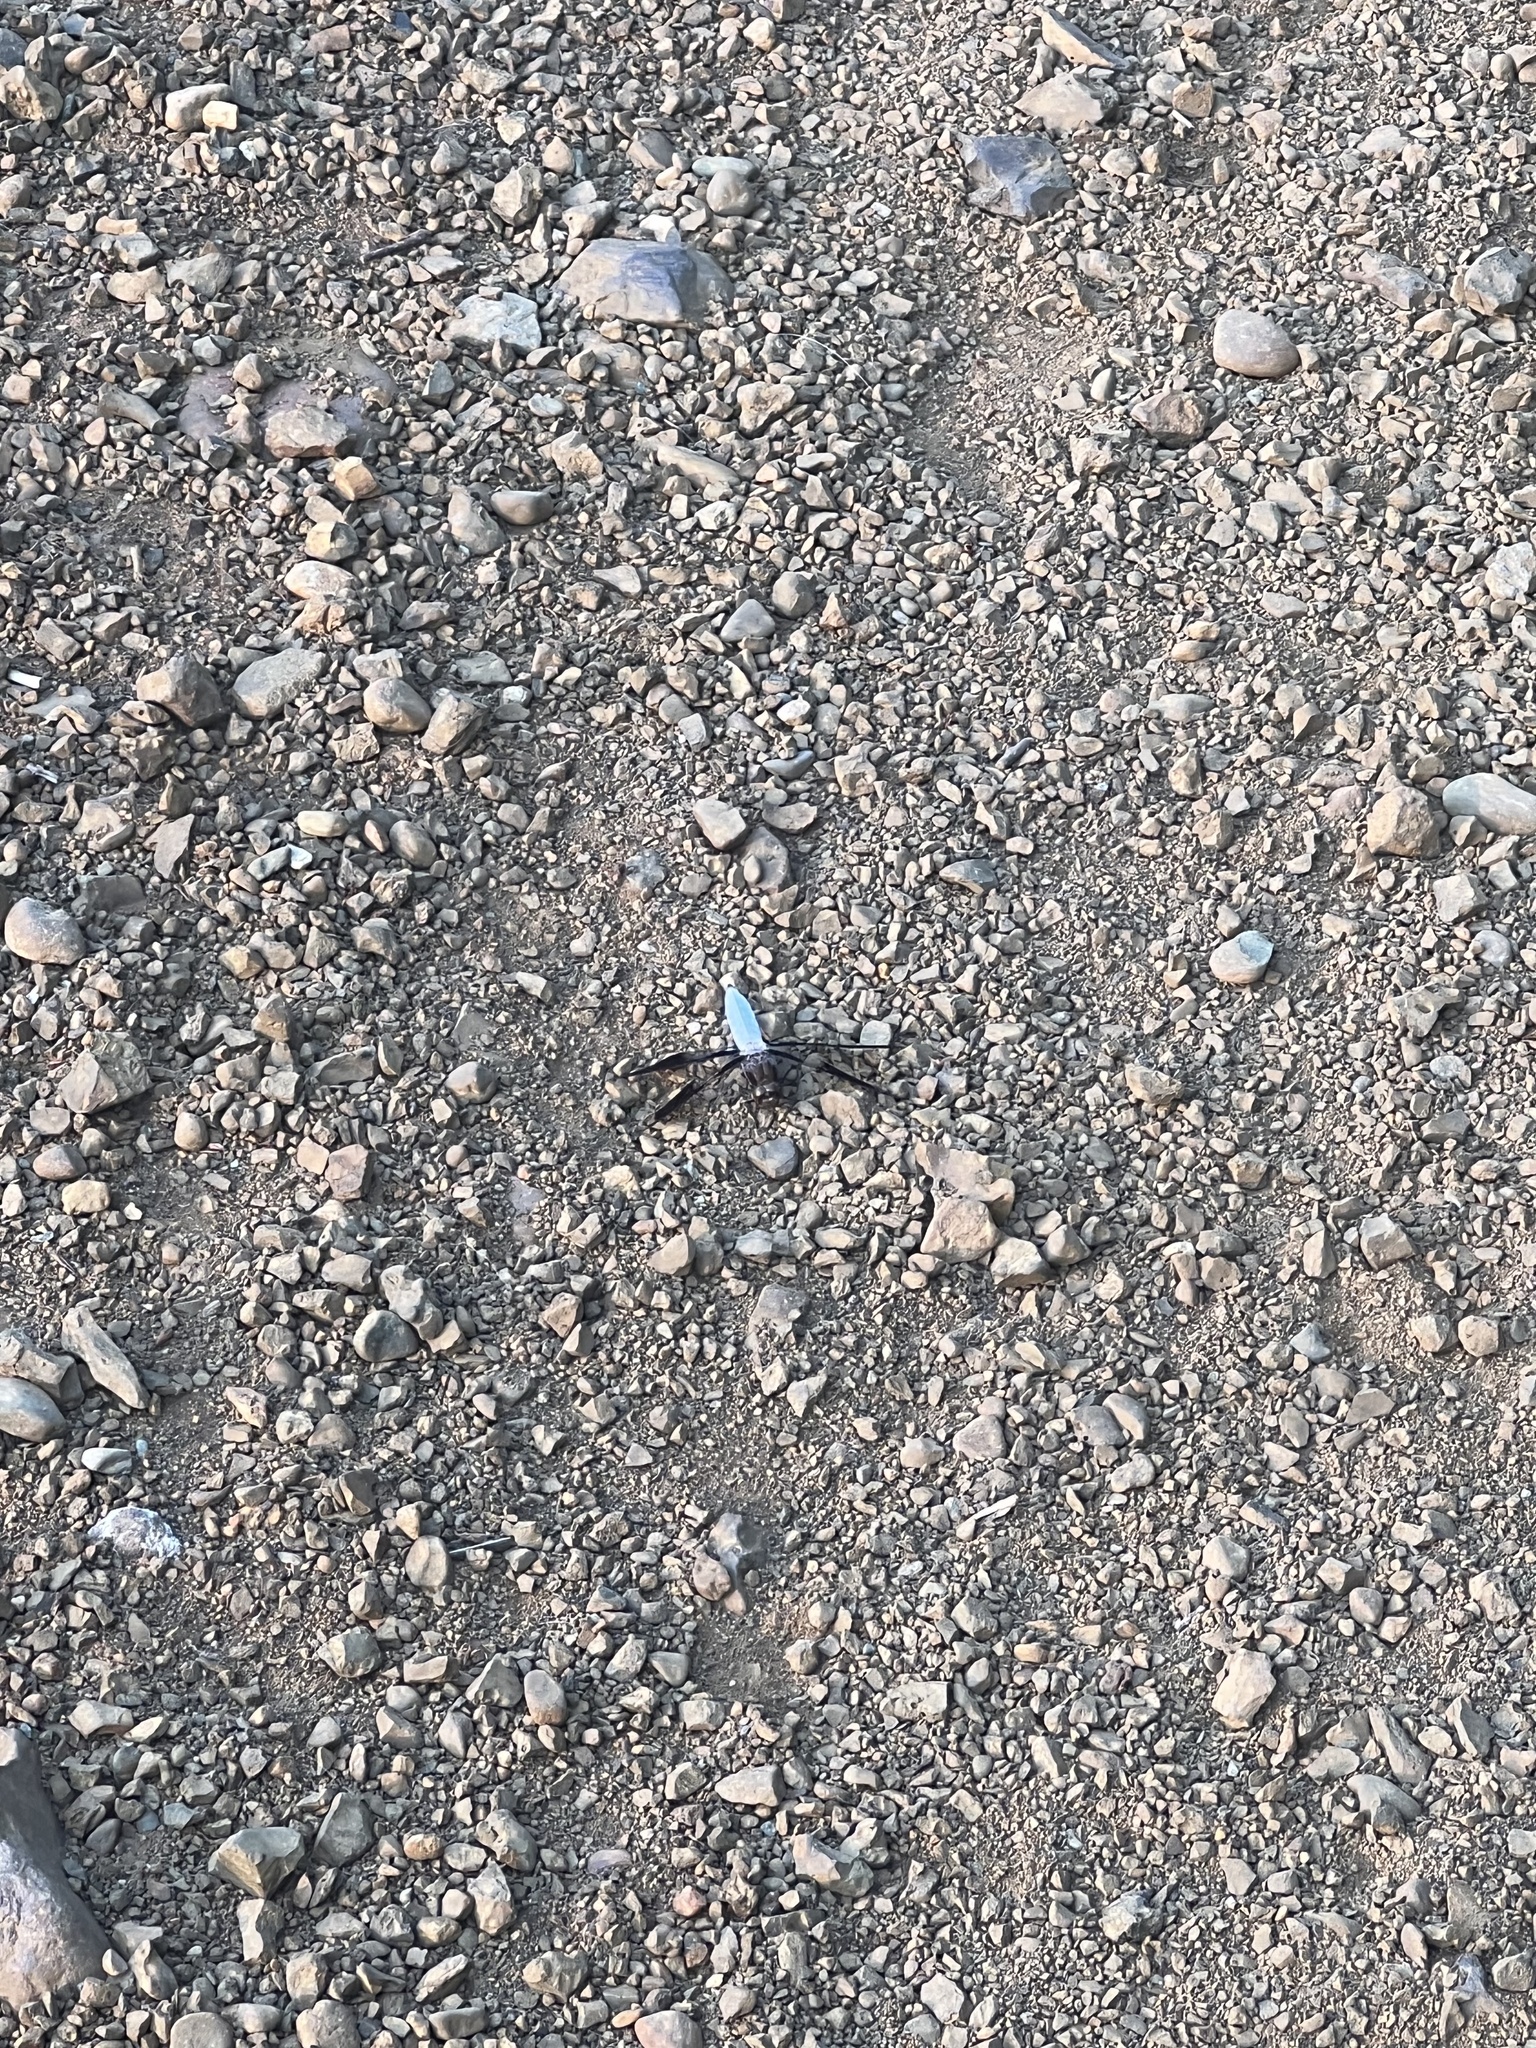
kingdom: Animalia
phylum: Arthropoda
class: Insecta
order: Odonata
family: Libellulidae
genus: Plathemis
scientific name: Plathemis lydia
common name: Common whitetail
